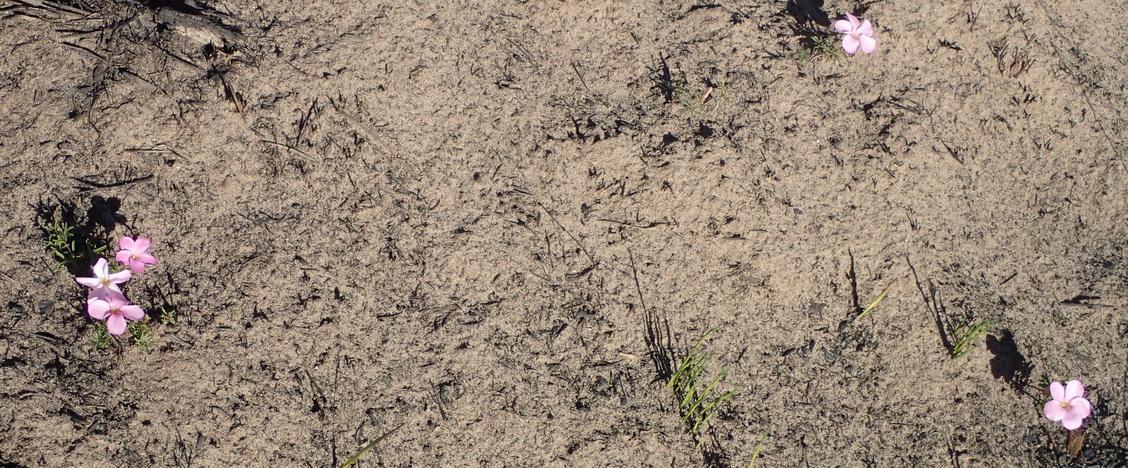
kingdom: Plantae
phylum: Tracheophyta
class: Magnoliopsida
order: Oxalidales
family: Oxalidaceae
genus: Oxalis
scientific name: Oxalis ciliaris
